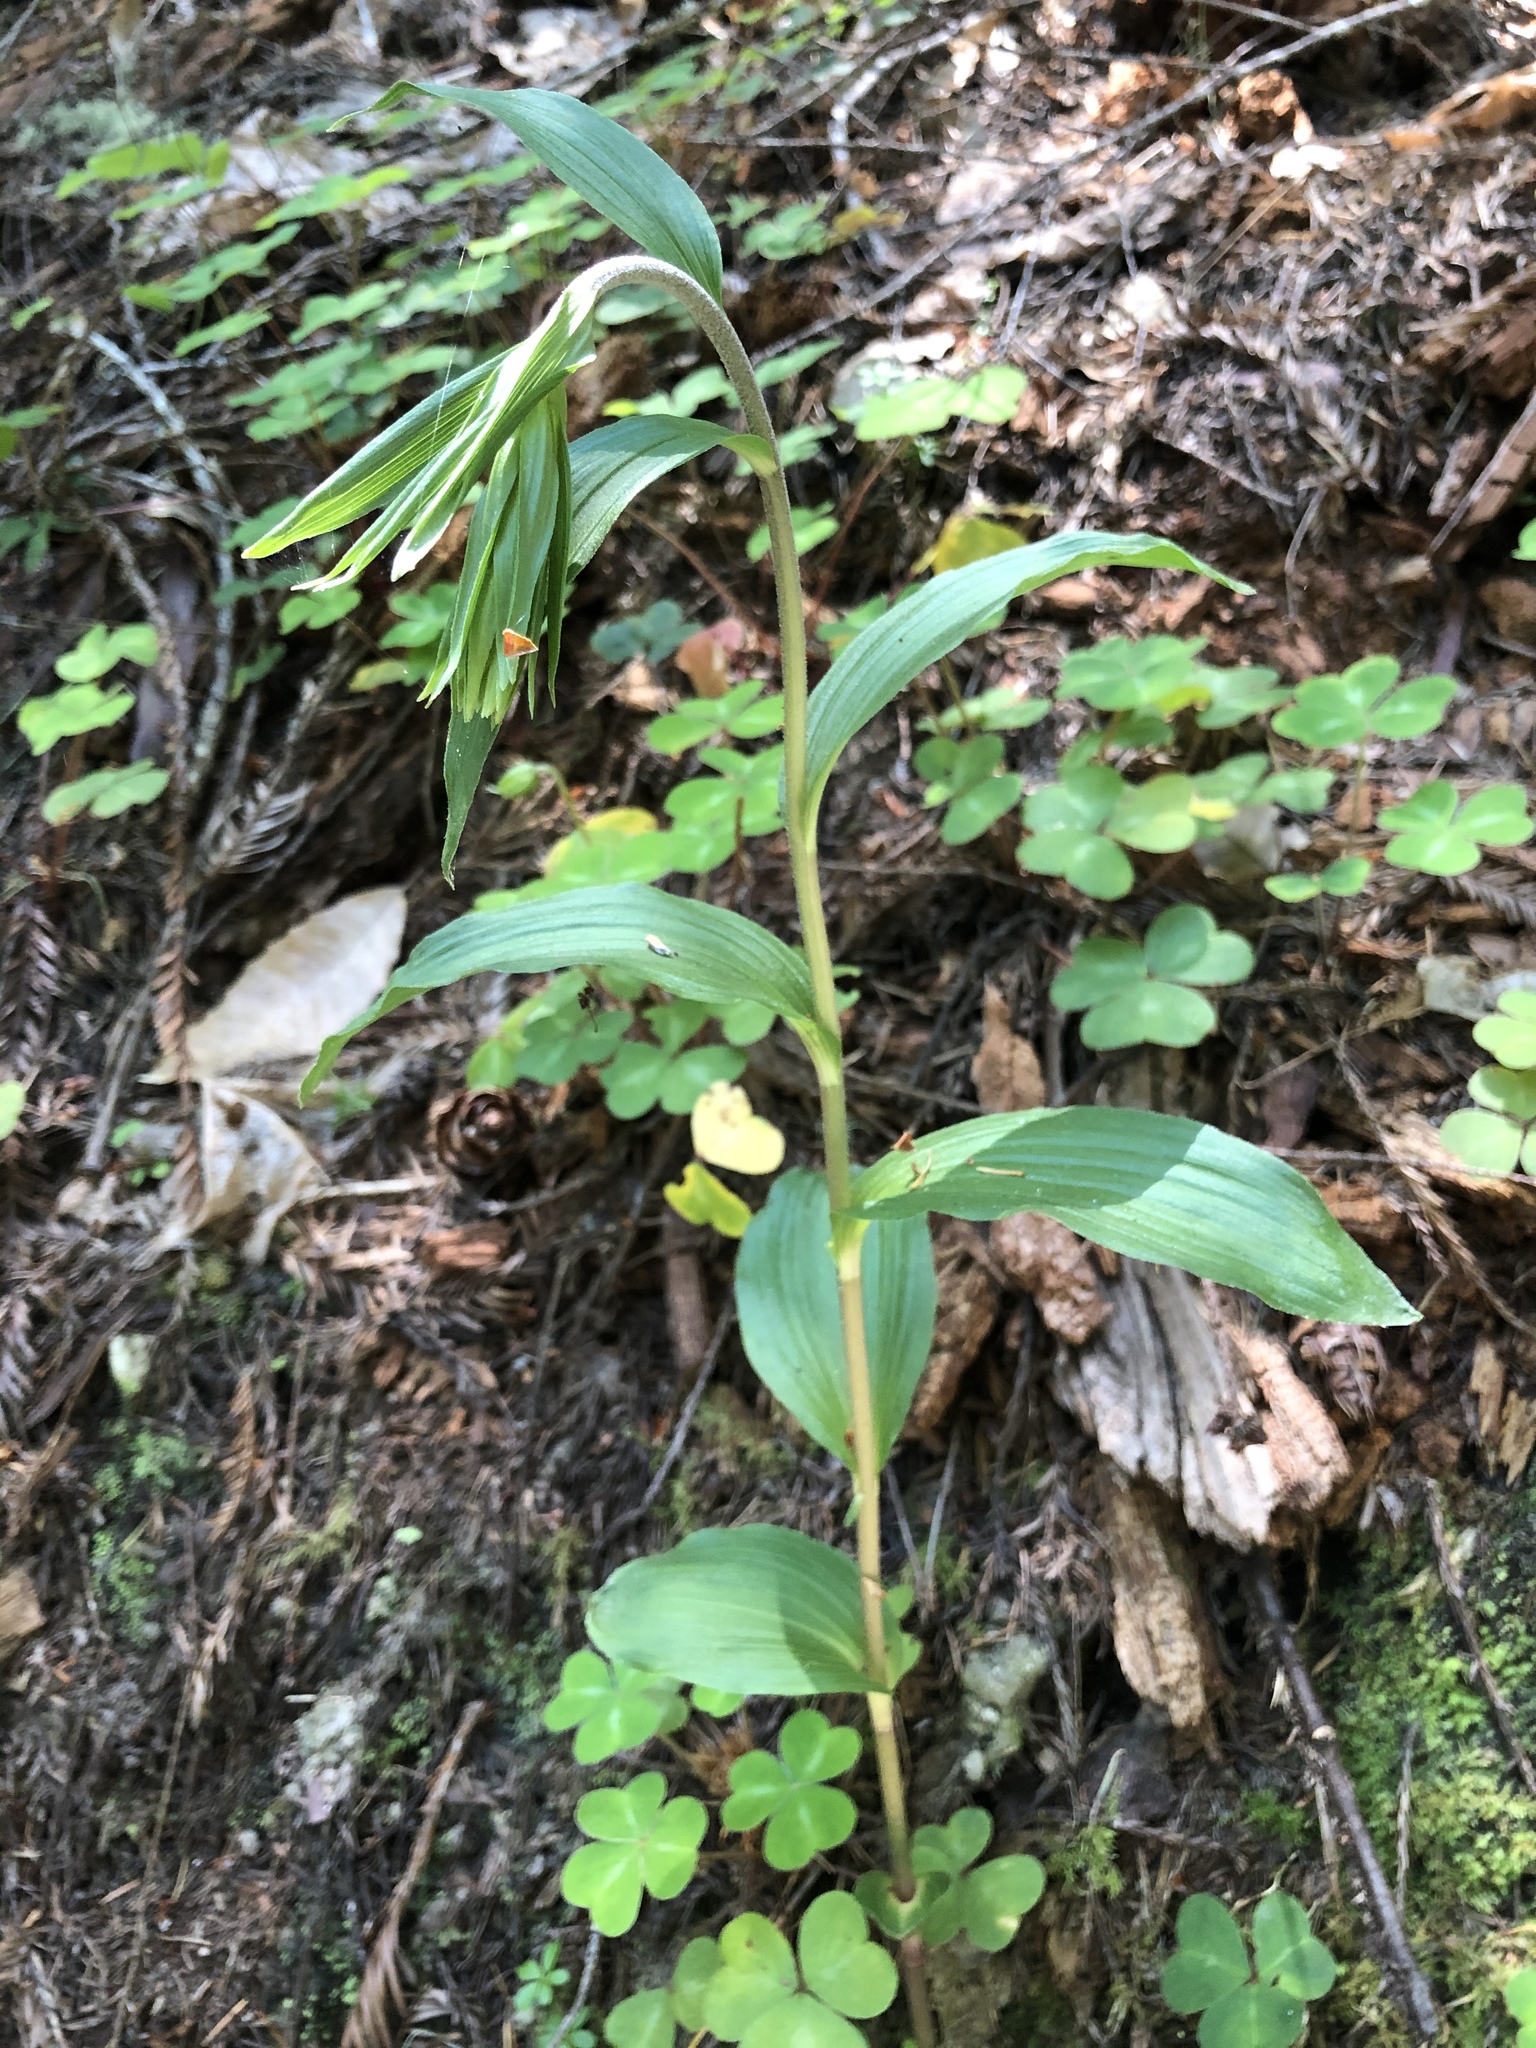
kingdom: Plantae
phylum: Tracheophyta
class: Liliopsida
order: Asparagales
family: Orchidaceae
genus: Epipactis
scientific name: Epipactis helleborine
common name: Broad-leaved helleborine
